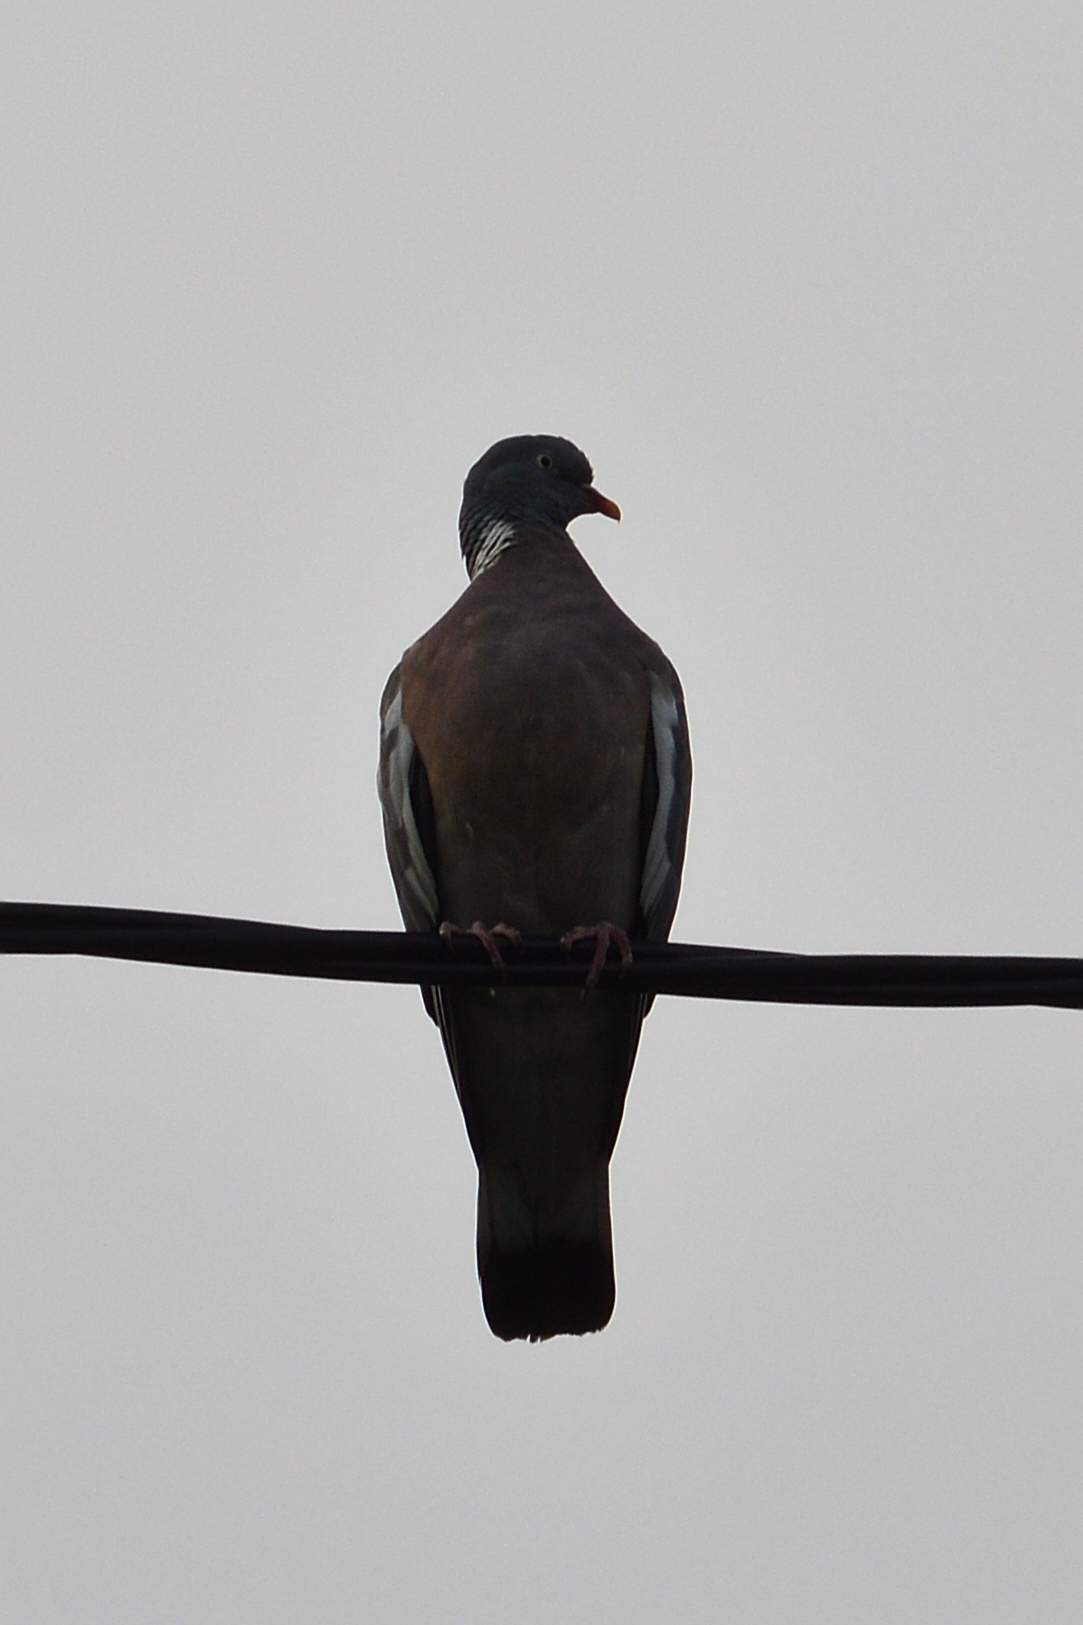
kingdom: Animalia
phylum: Chordata
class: Aves
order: Columbiformes
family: Columbidae
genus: Columba
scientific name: Columba palumbus
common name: Common wood pigeon
